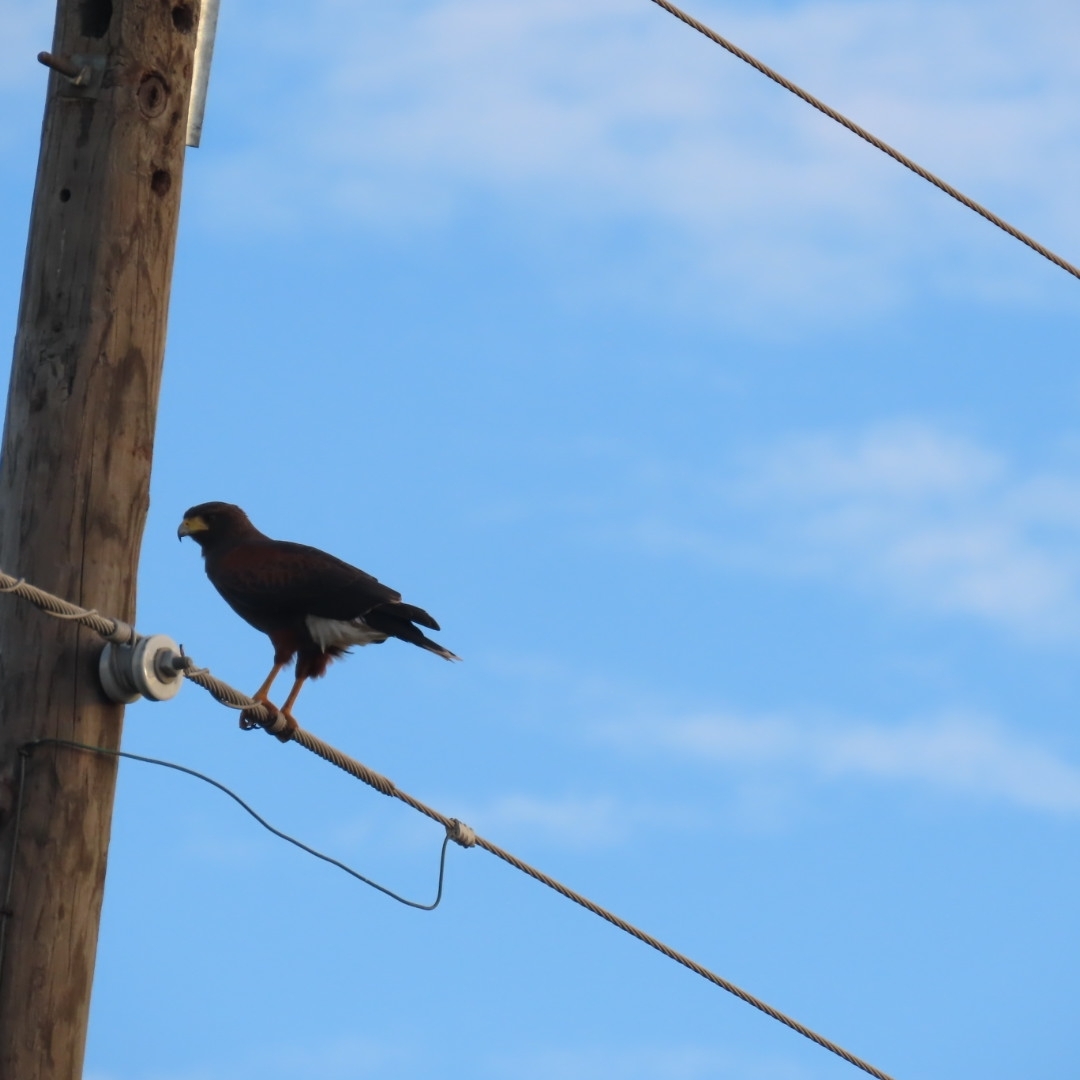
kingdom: Animalia
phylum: Chordata
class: Aves
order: Accipitriformes
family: Accipitridae
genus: Parabuteo
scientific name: Parabuteo unicinctus
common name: Harris's hawk
